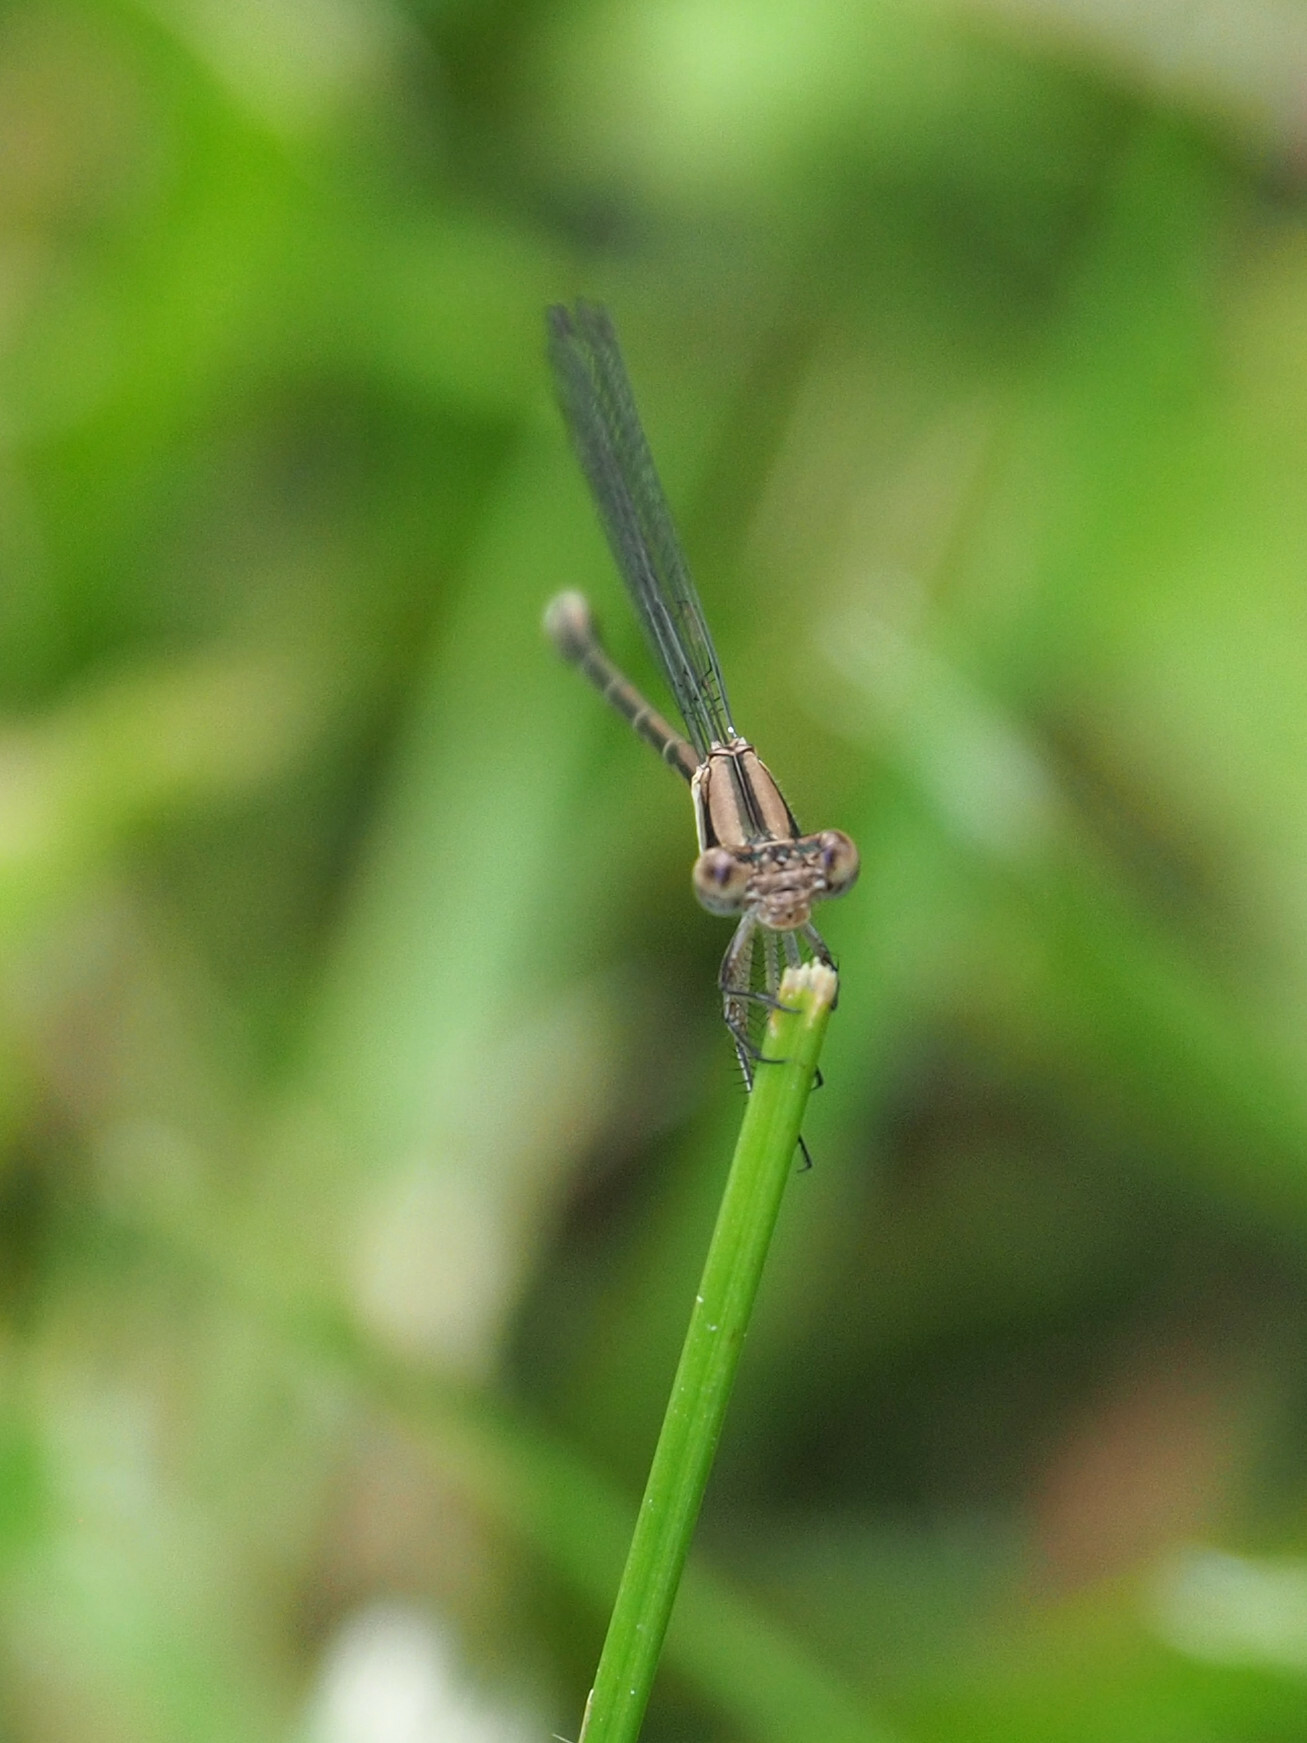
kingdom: Animalia
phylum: Arthropoda
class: Insecta
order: Odonata
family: Coenagrionidae
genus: Argia
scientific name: Argia fumipennis
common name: Variable dancer
